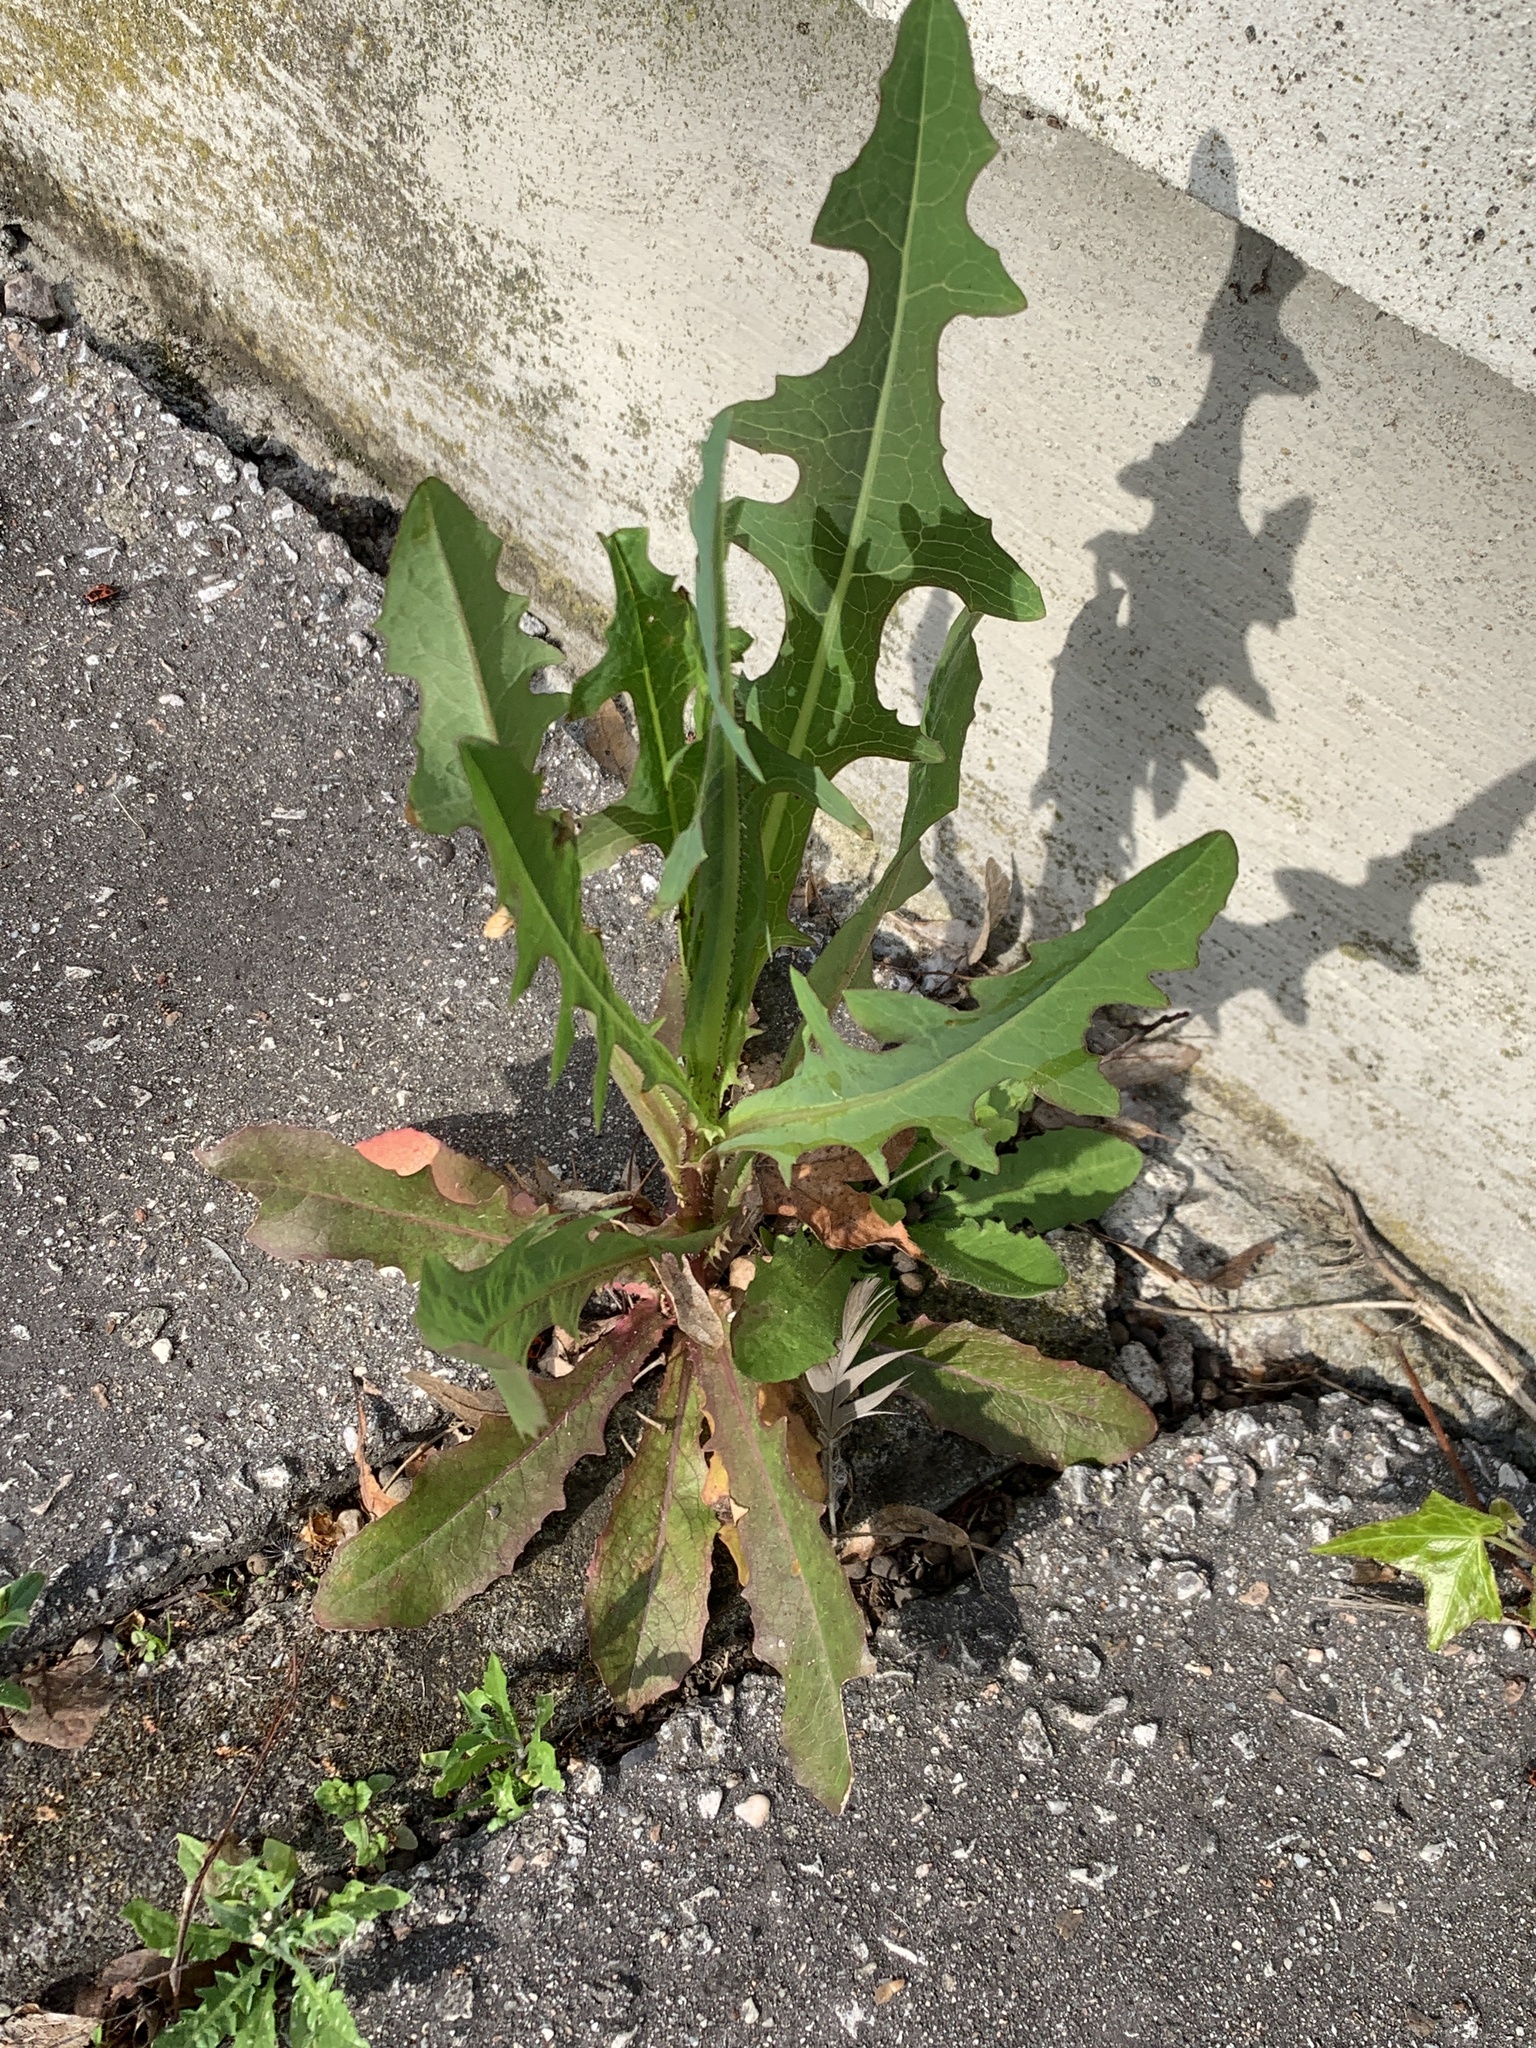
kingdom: Plantae
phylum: Tracheophyta
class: Magnoliopsida
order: Asterales
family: Asteraceae
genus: Lactuca
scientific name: Lactuca serriola
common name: Prickly lettuce
